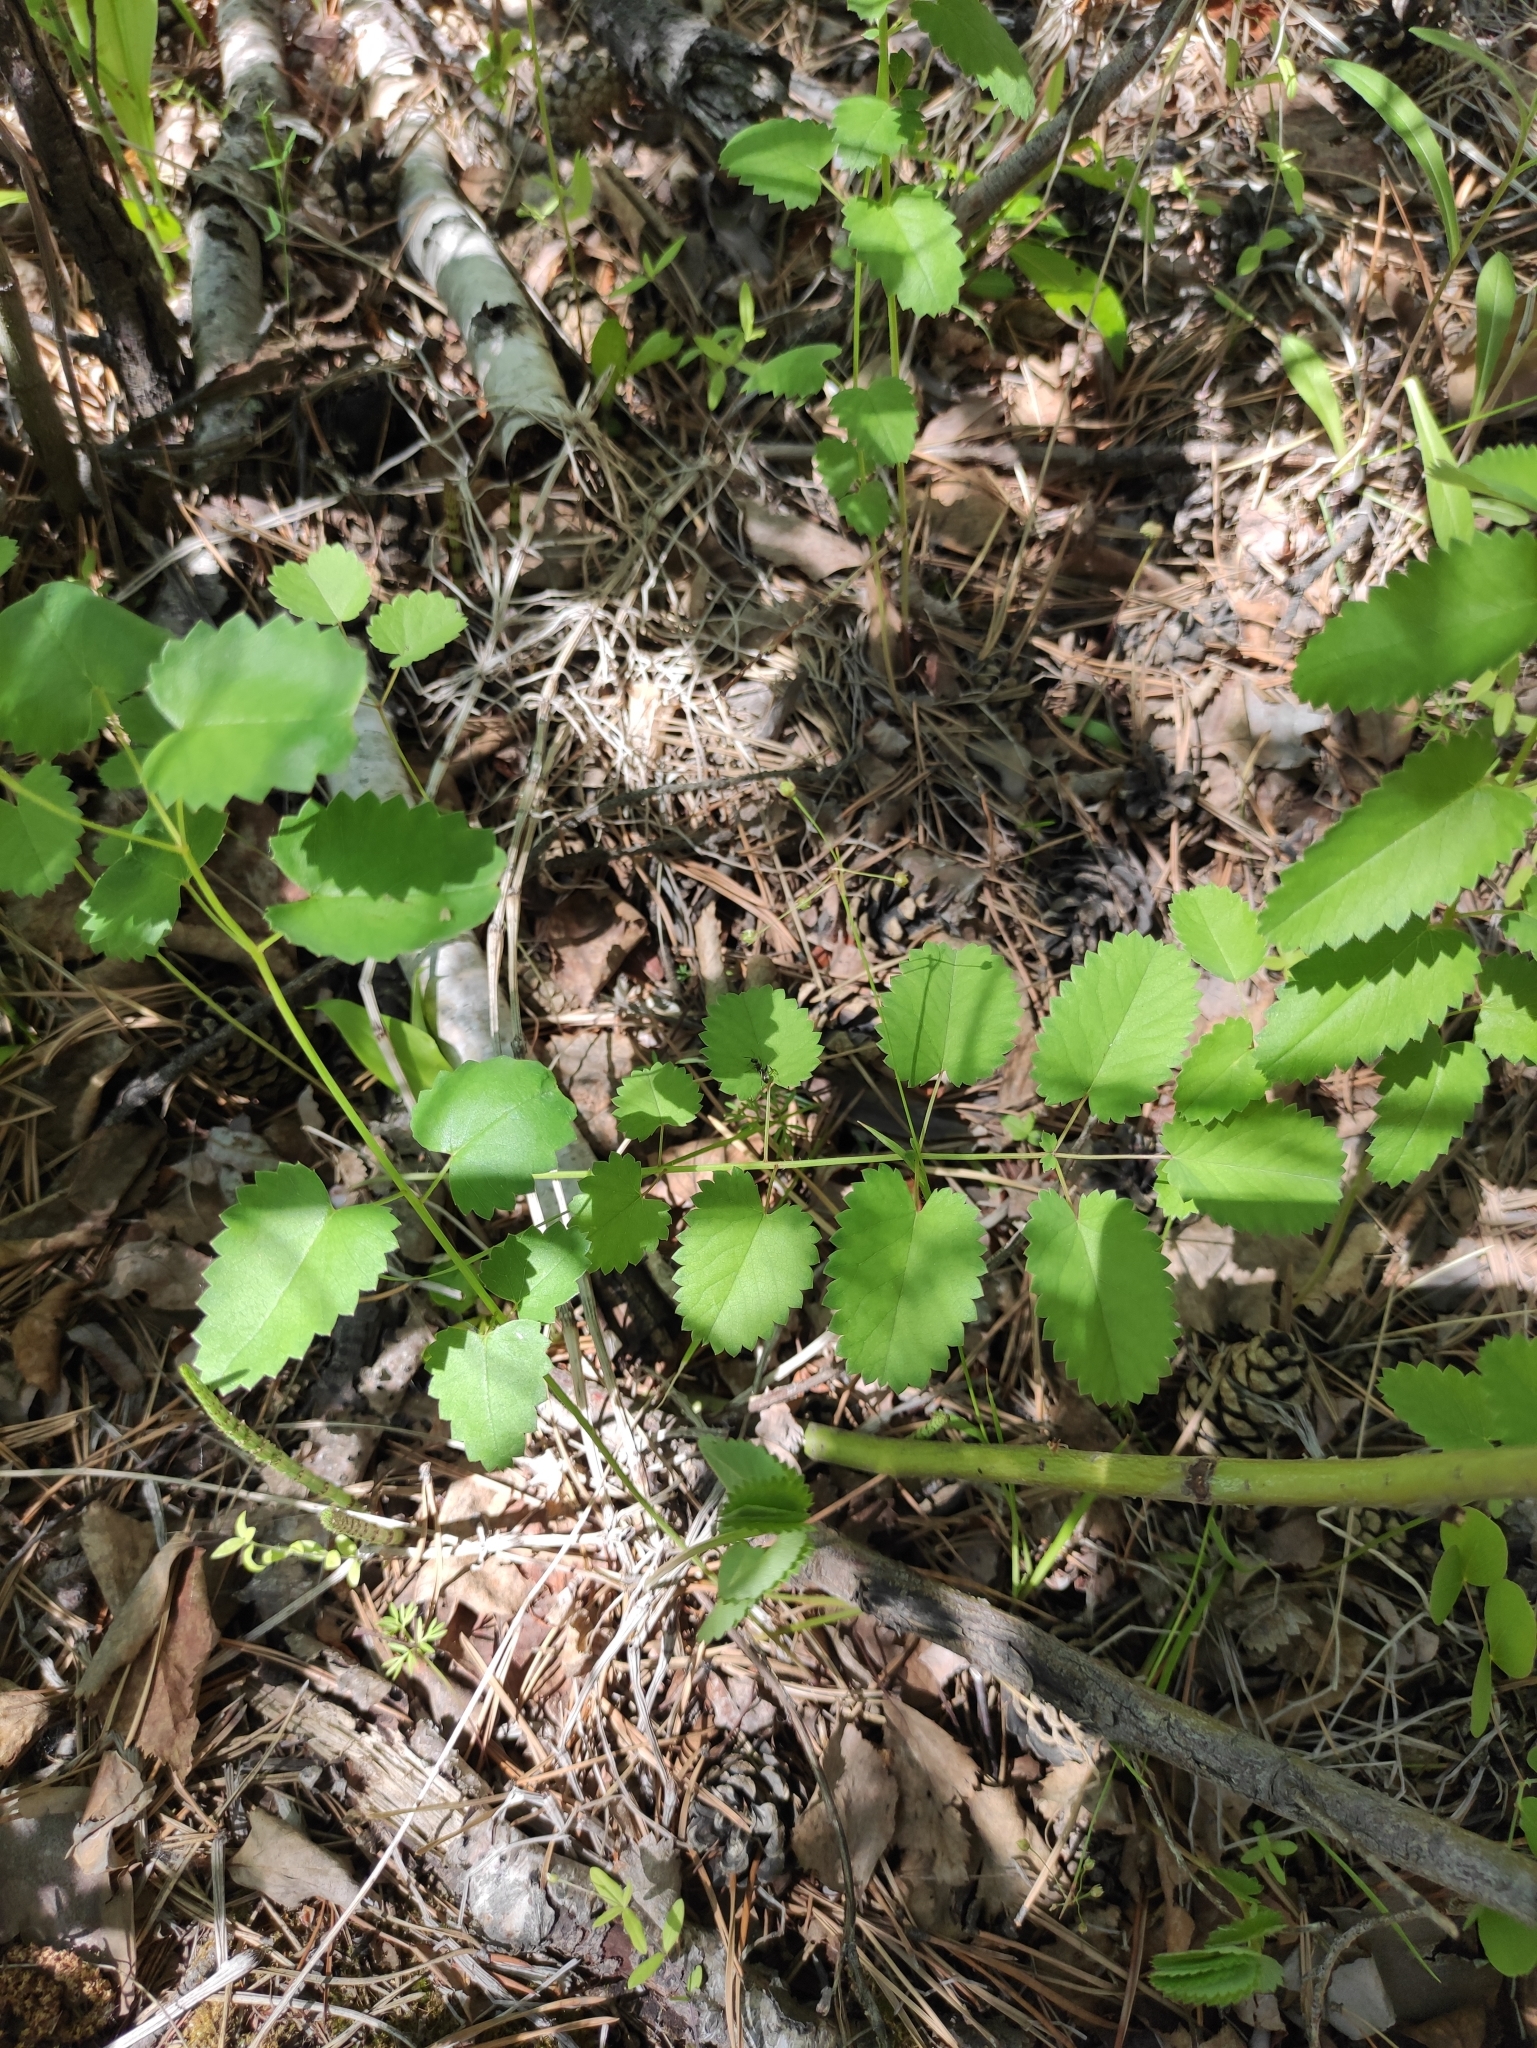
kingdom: Plantae
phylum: Tracheophyta
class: Magnoliopsida
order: Rosales
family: Rosaceae
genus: Sanguisorba
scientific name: Sanguisorba officinalis
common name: Great burnet
